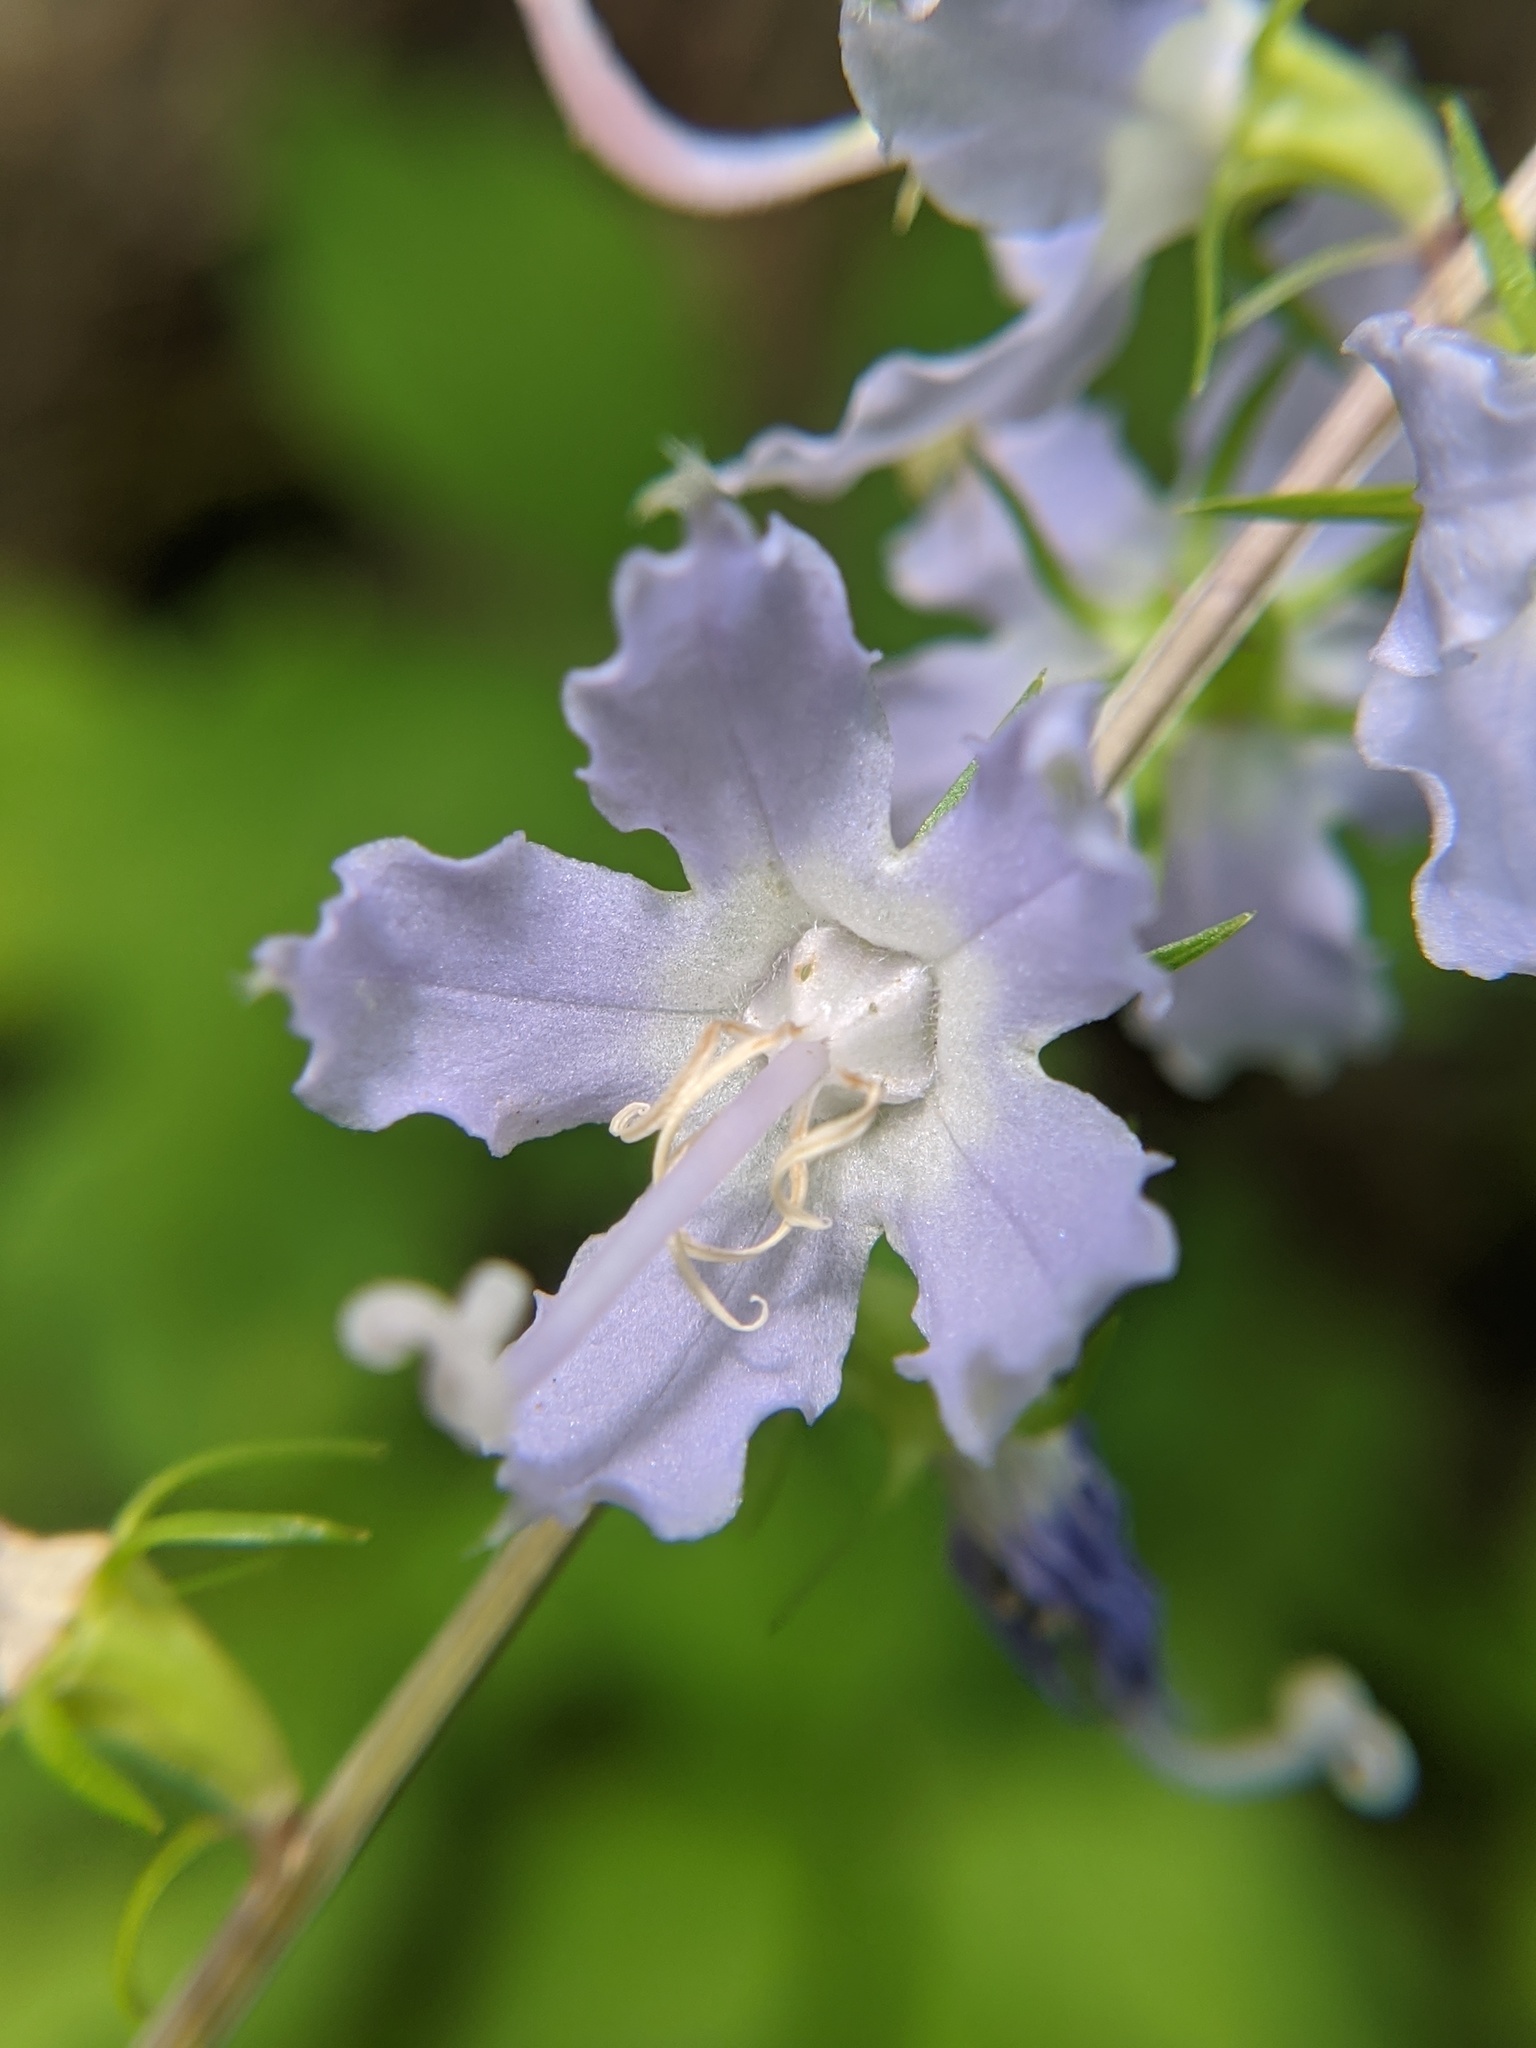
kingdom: Plantae
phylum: Tracheophyta
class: Magnoliopsida
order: Asterales
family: Campanulaceae
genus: Campanulastrum
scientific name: Campanulastrum americanum
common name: American bellflower
